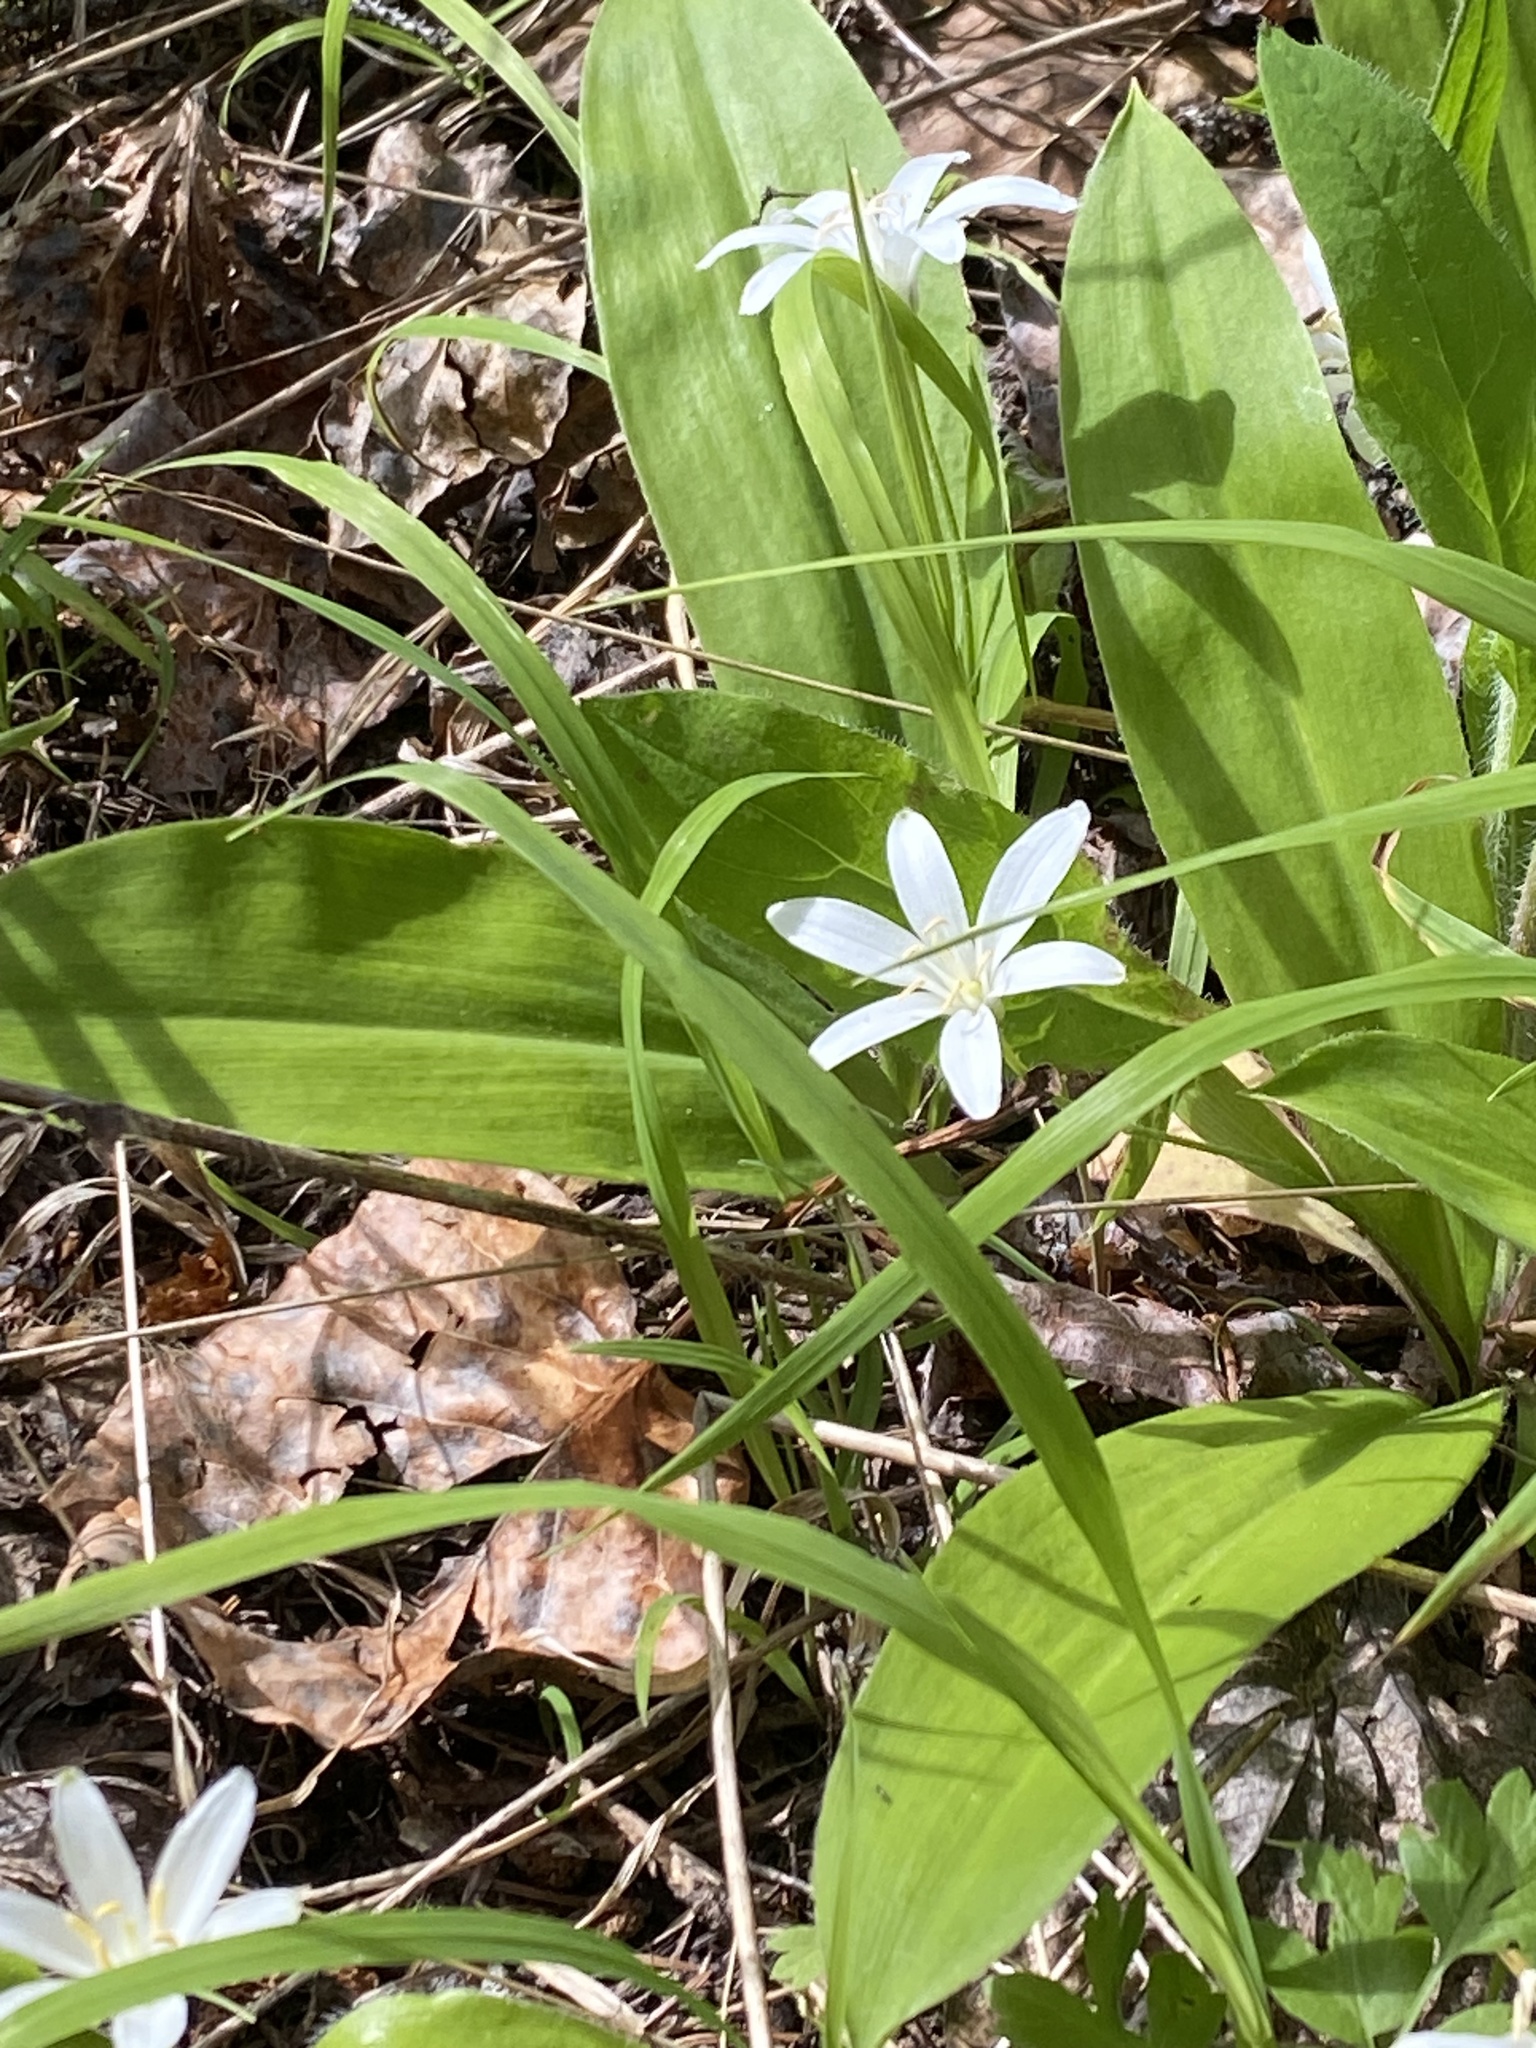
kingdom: Plantae
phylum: Tracheophyta
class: Liliopsida
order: Liliales
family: Liliaceae
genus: Clintonia
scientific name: Clintonia uniflora
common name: Queen's cup
